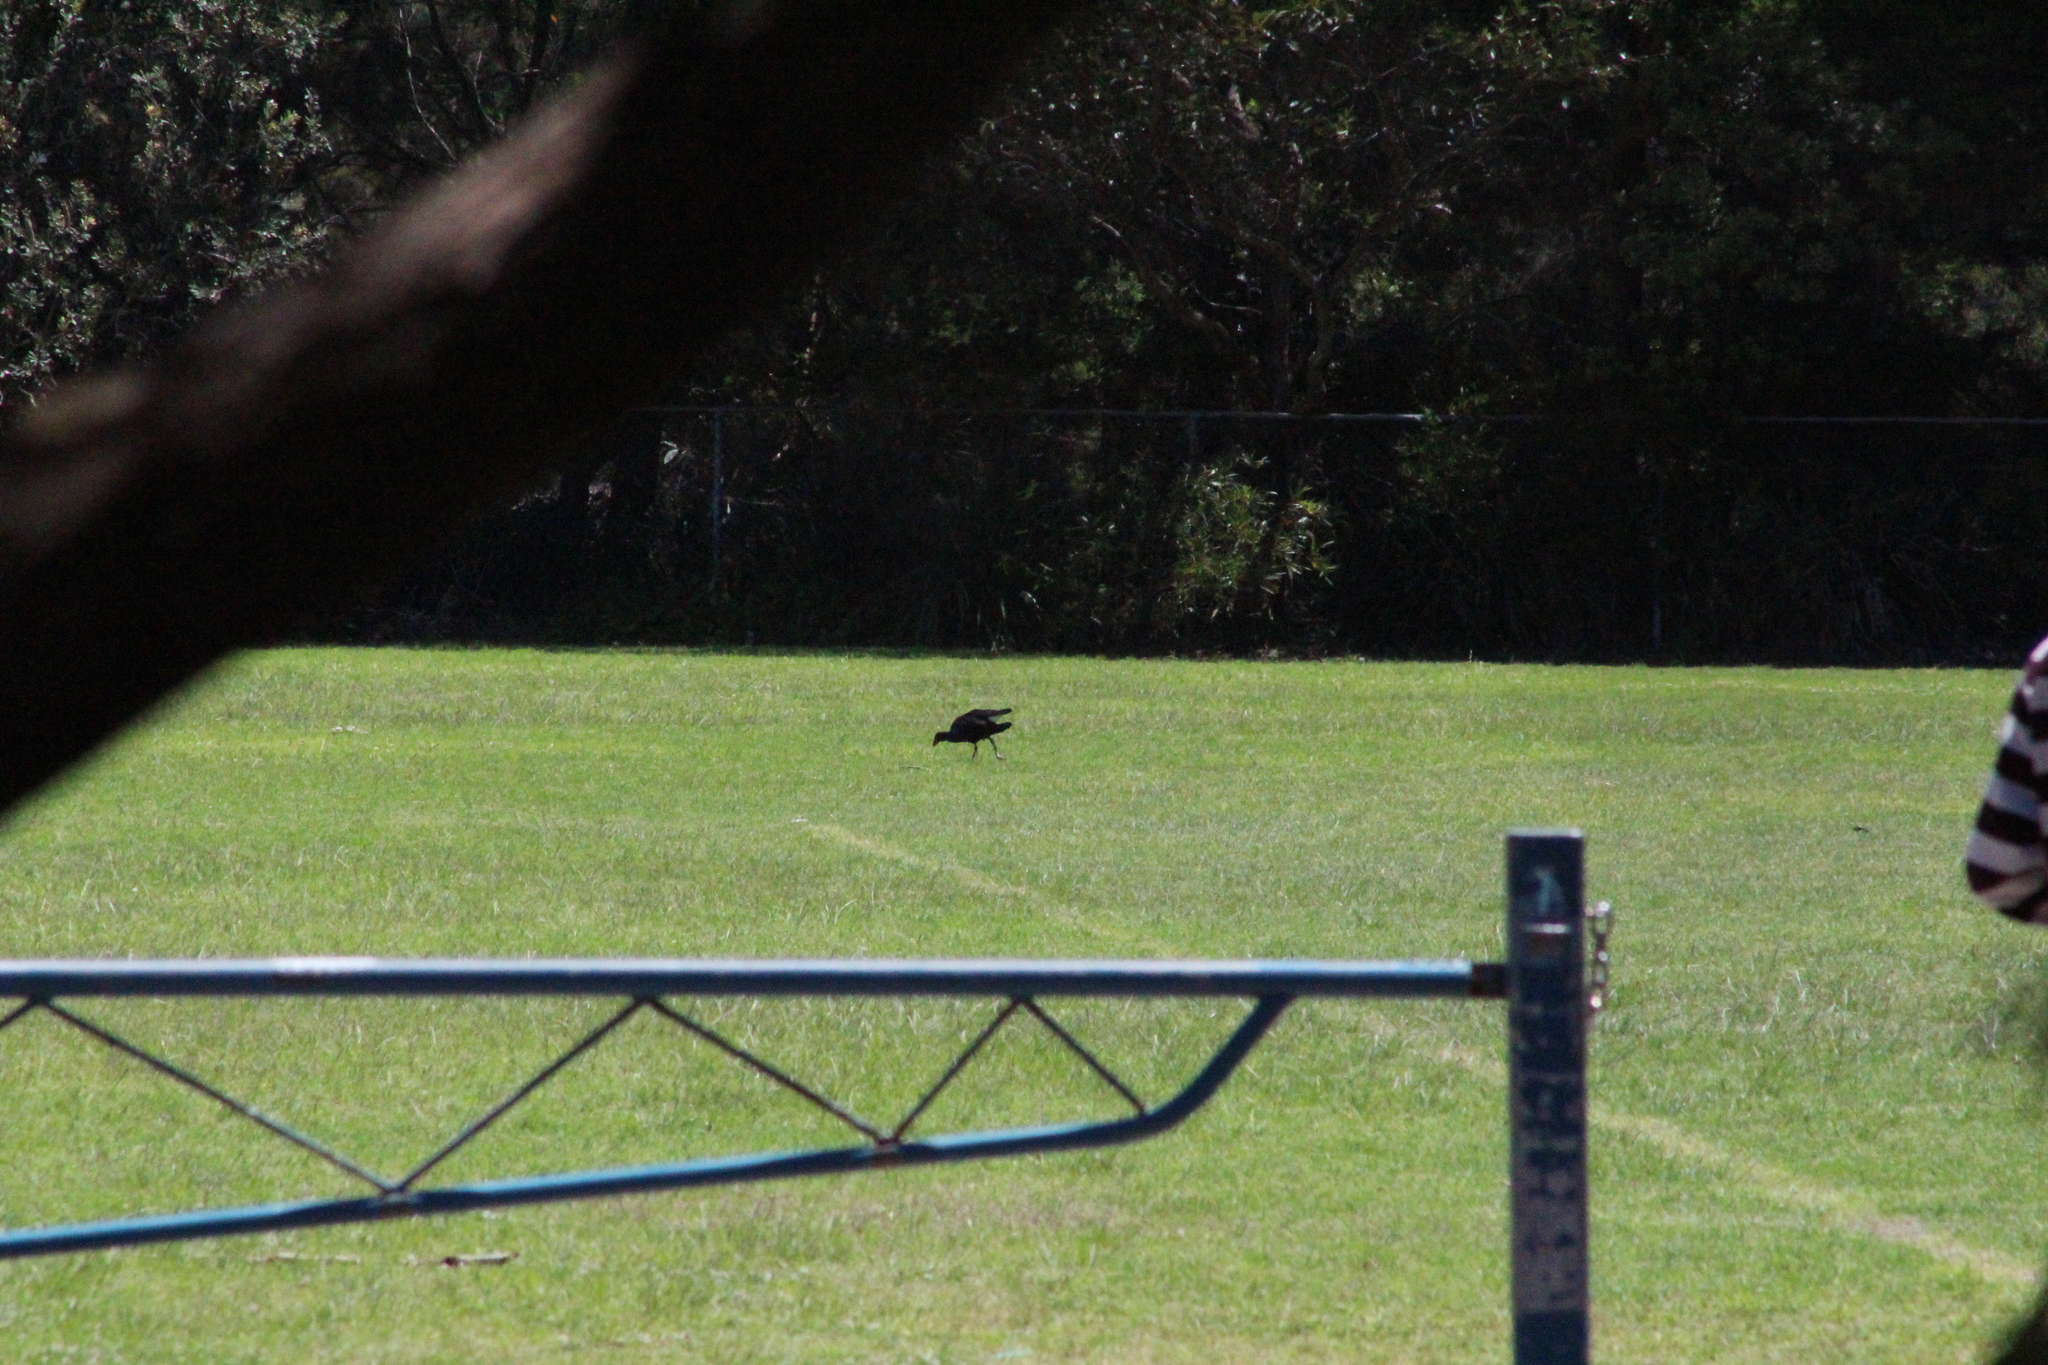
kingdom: Animalia
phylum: Chordata
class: Aves
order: Gruiformes
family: Rallidae
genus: Porphyrio
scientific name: Porphyrio melanotus
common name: Australasian swamphen
